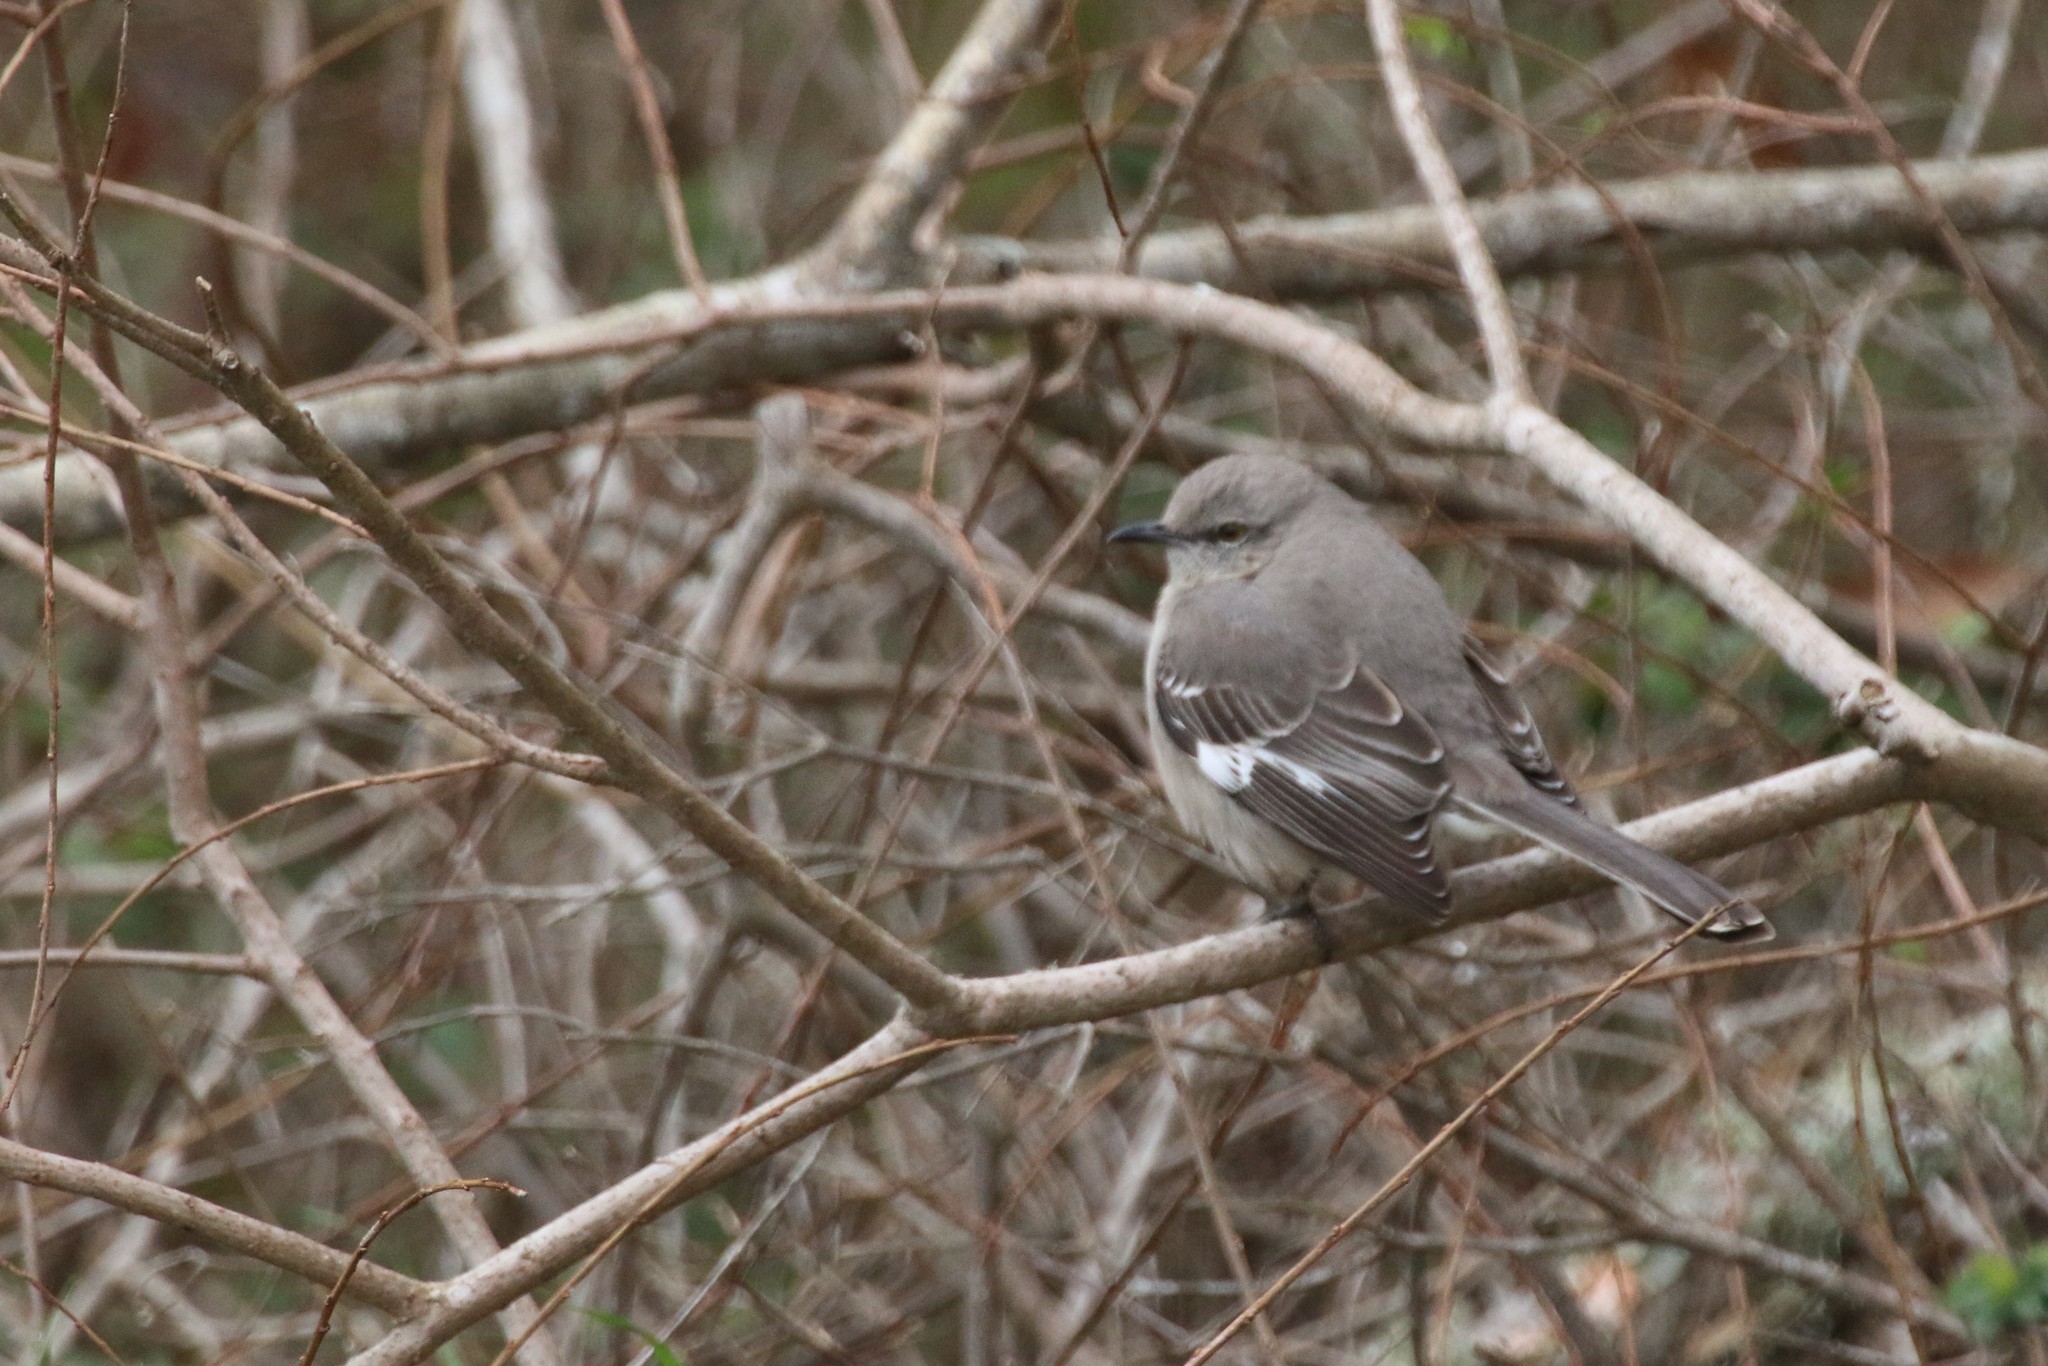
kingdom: Animalia
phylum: Chordata
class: Aves
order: Passeriformes
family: Mimidae
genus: Mimus
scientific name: Mimus polyglottos
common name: Northern mockingbird
